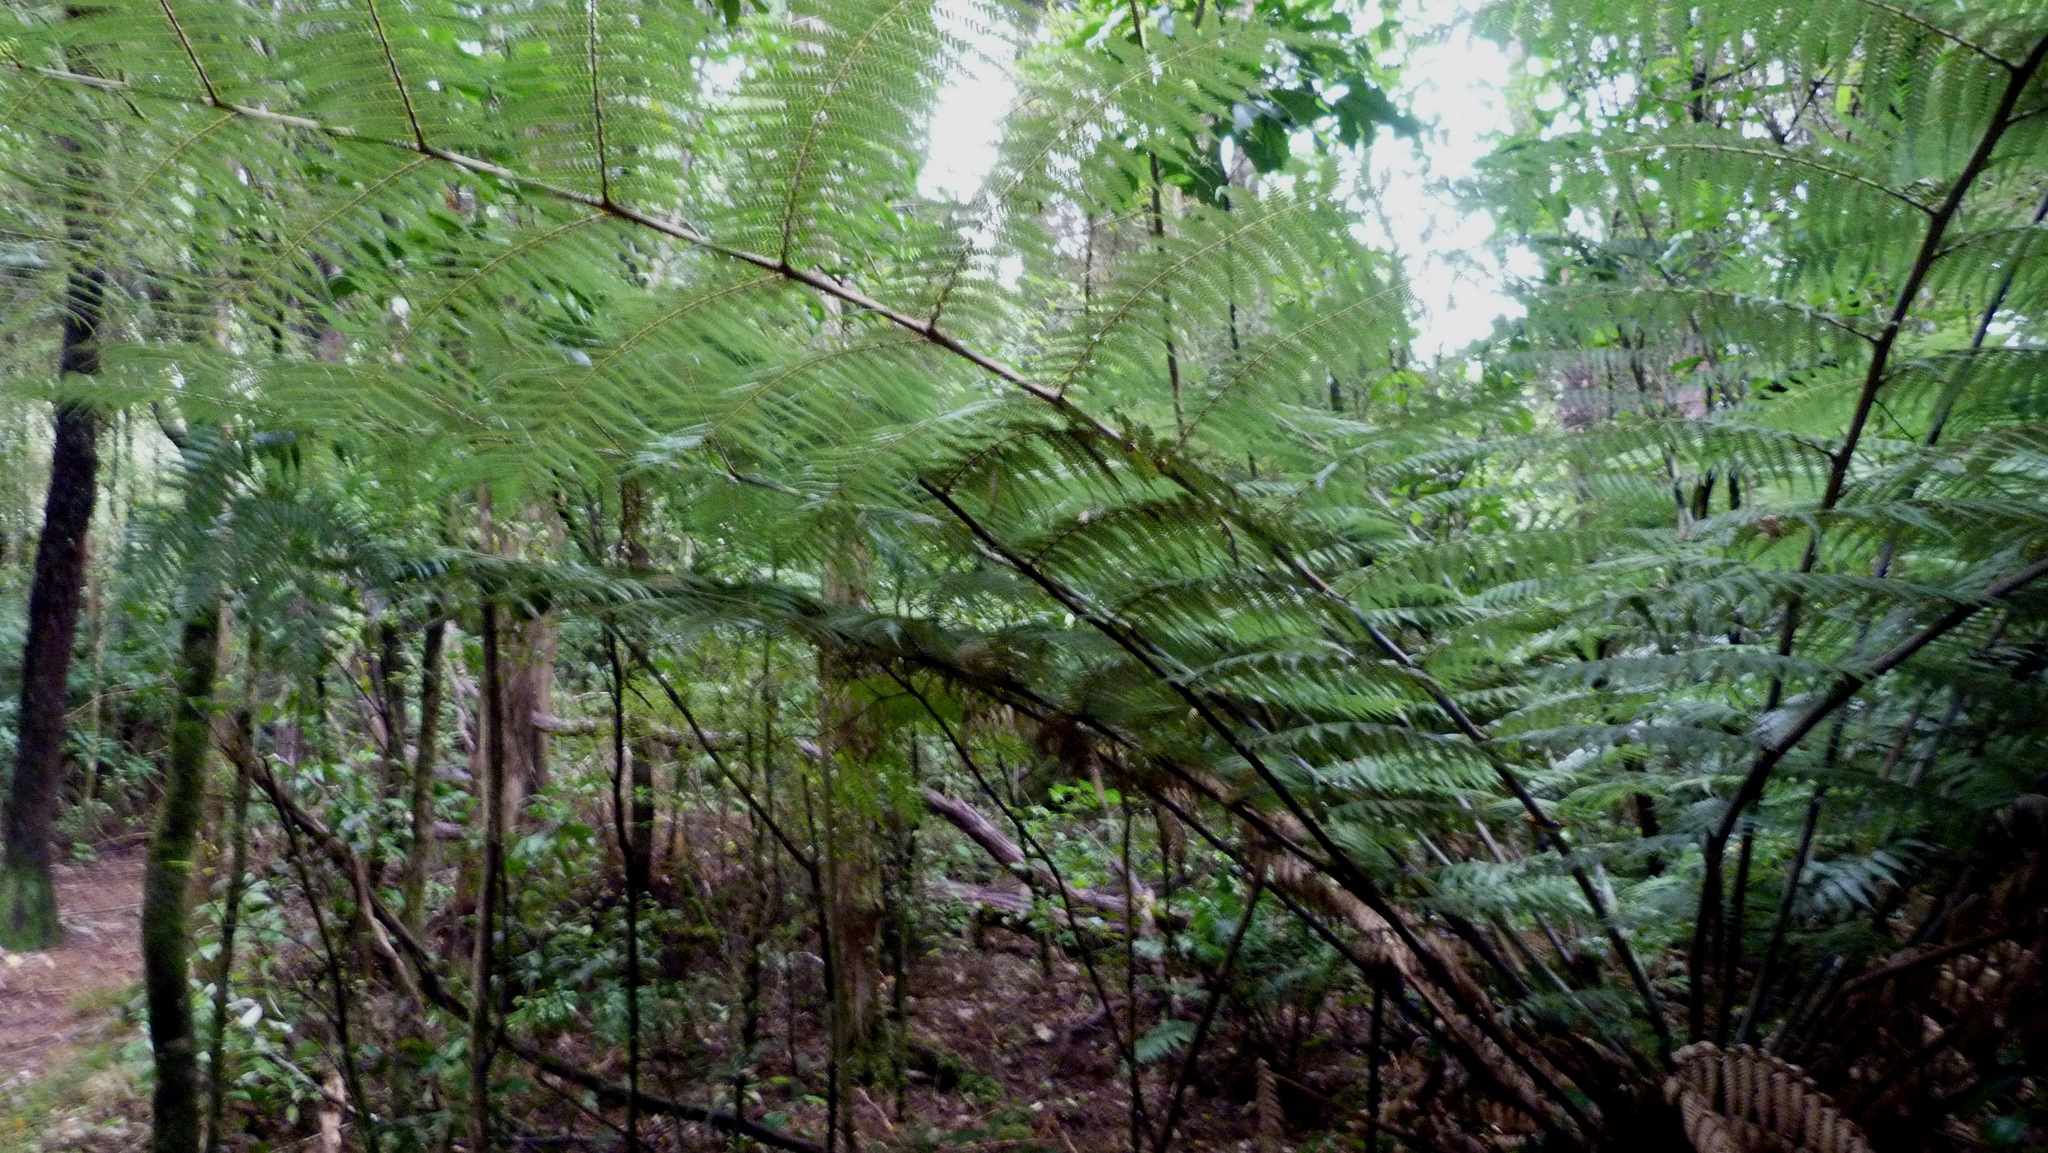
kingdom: Plantae
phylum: Tracheophyta
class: Polypodiopsida
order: Cyatheales
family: Cyatheaceae
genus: Alsophila
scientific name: Alsophila dealbata
